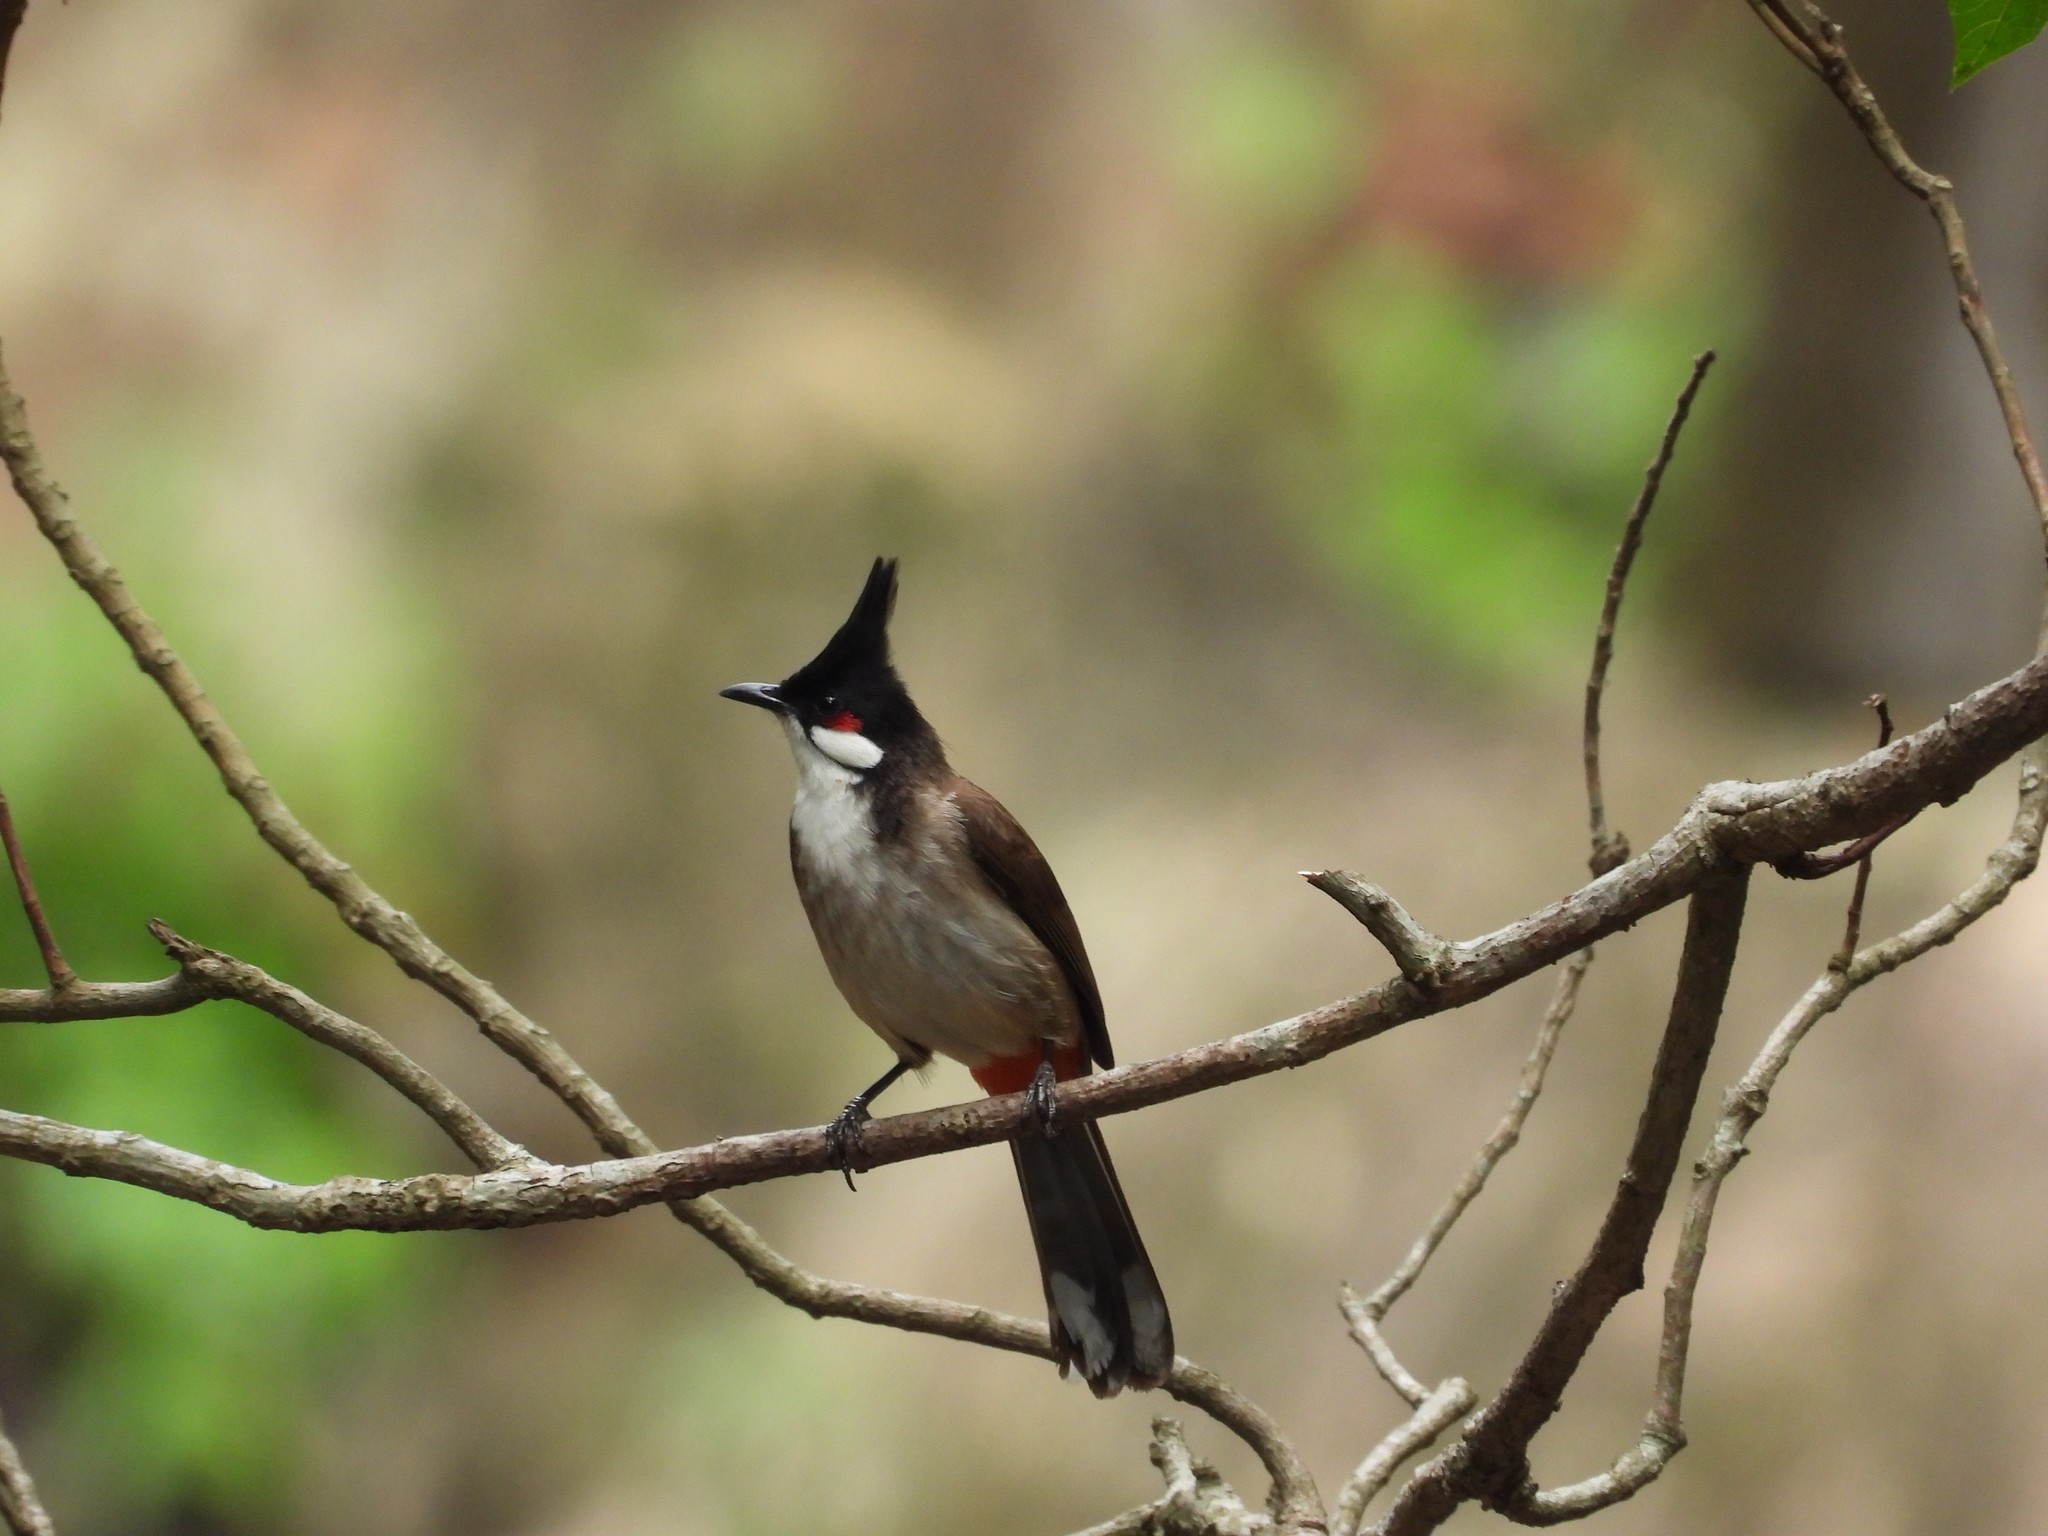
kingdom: Animalia
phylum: Chordata
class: Aves
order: Passeriformes
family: Pycnonotidae
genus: Pycnonotus
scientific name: Pycnonotus jocosus
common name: Red-whiskered bulbul
